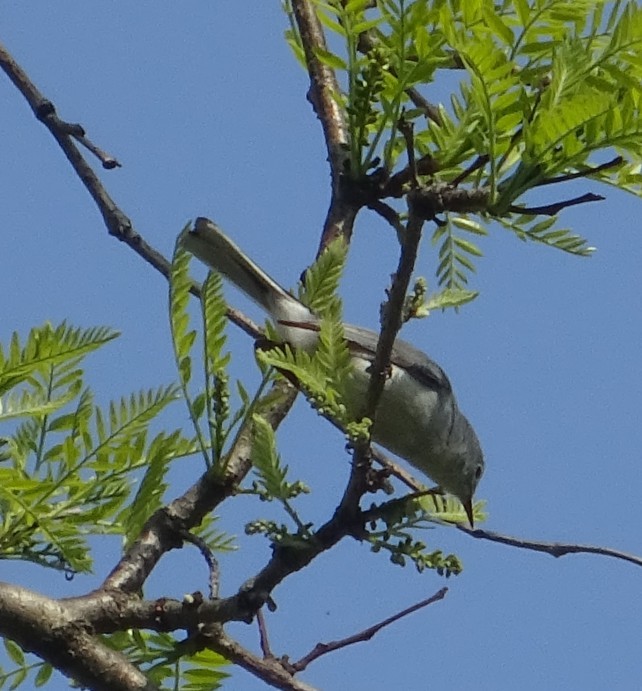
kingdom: Animalia
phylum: Chordata
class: Aves
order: Passeriformes
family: Polioptilidae
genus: Polioptila
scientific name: Polioptila caerulea
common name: Blue-gray gnatcatcher
